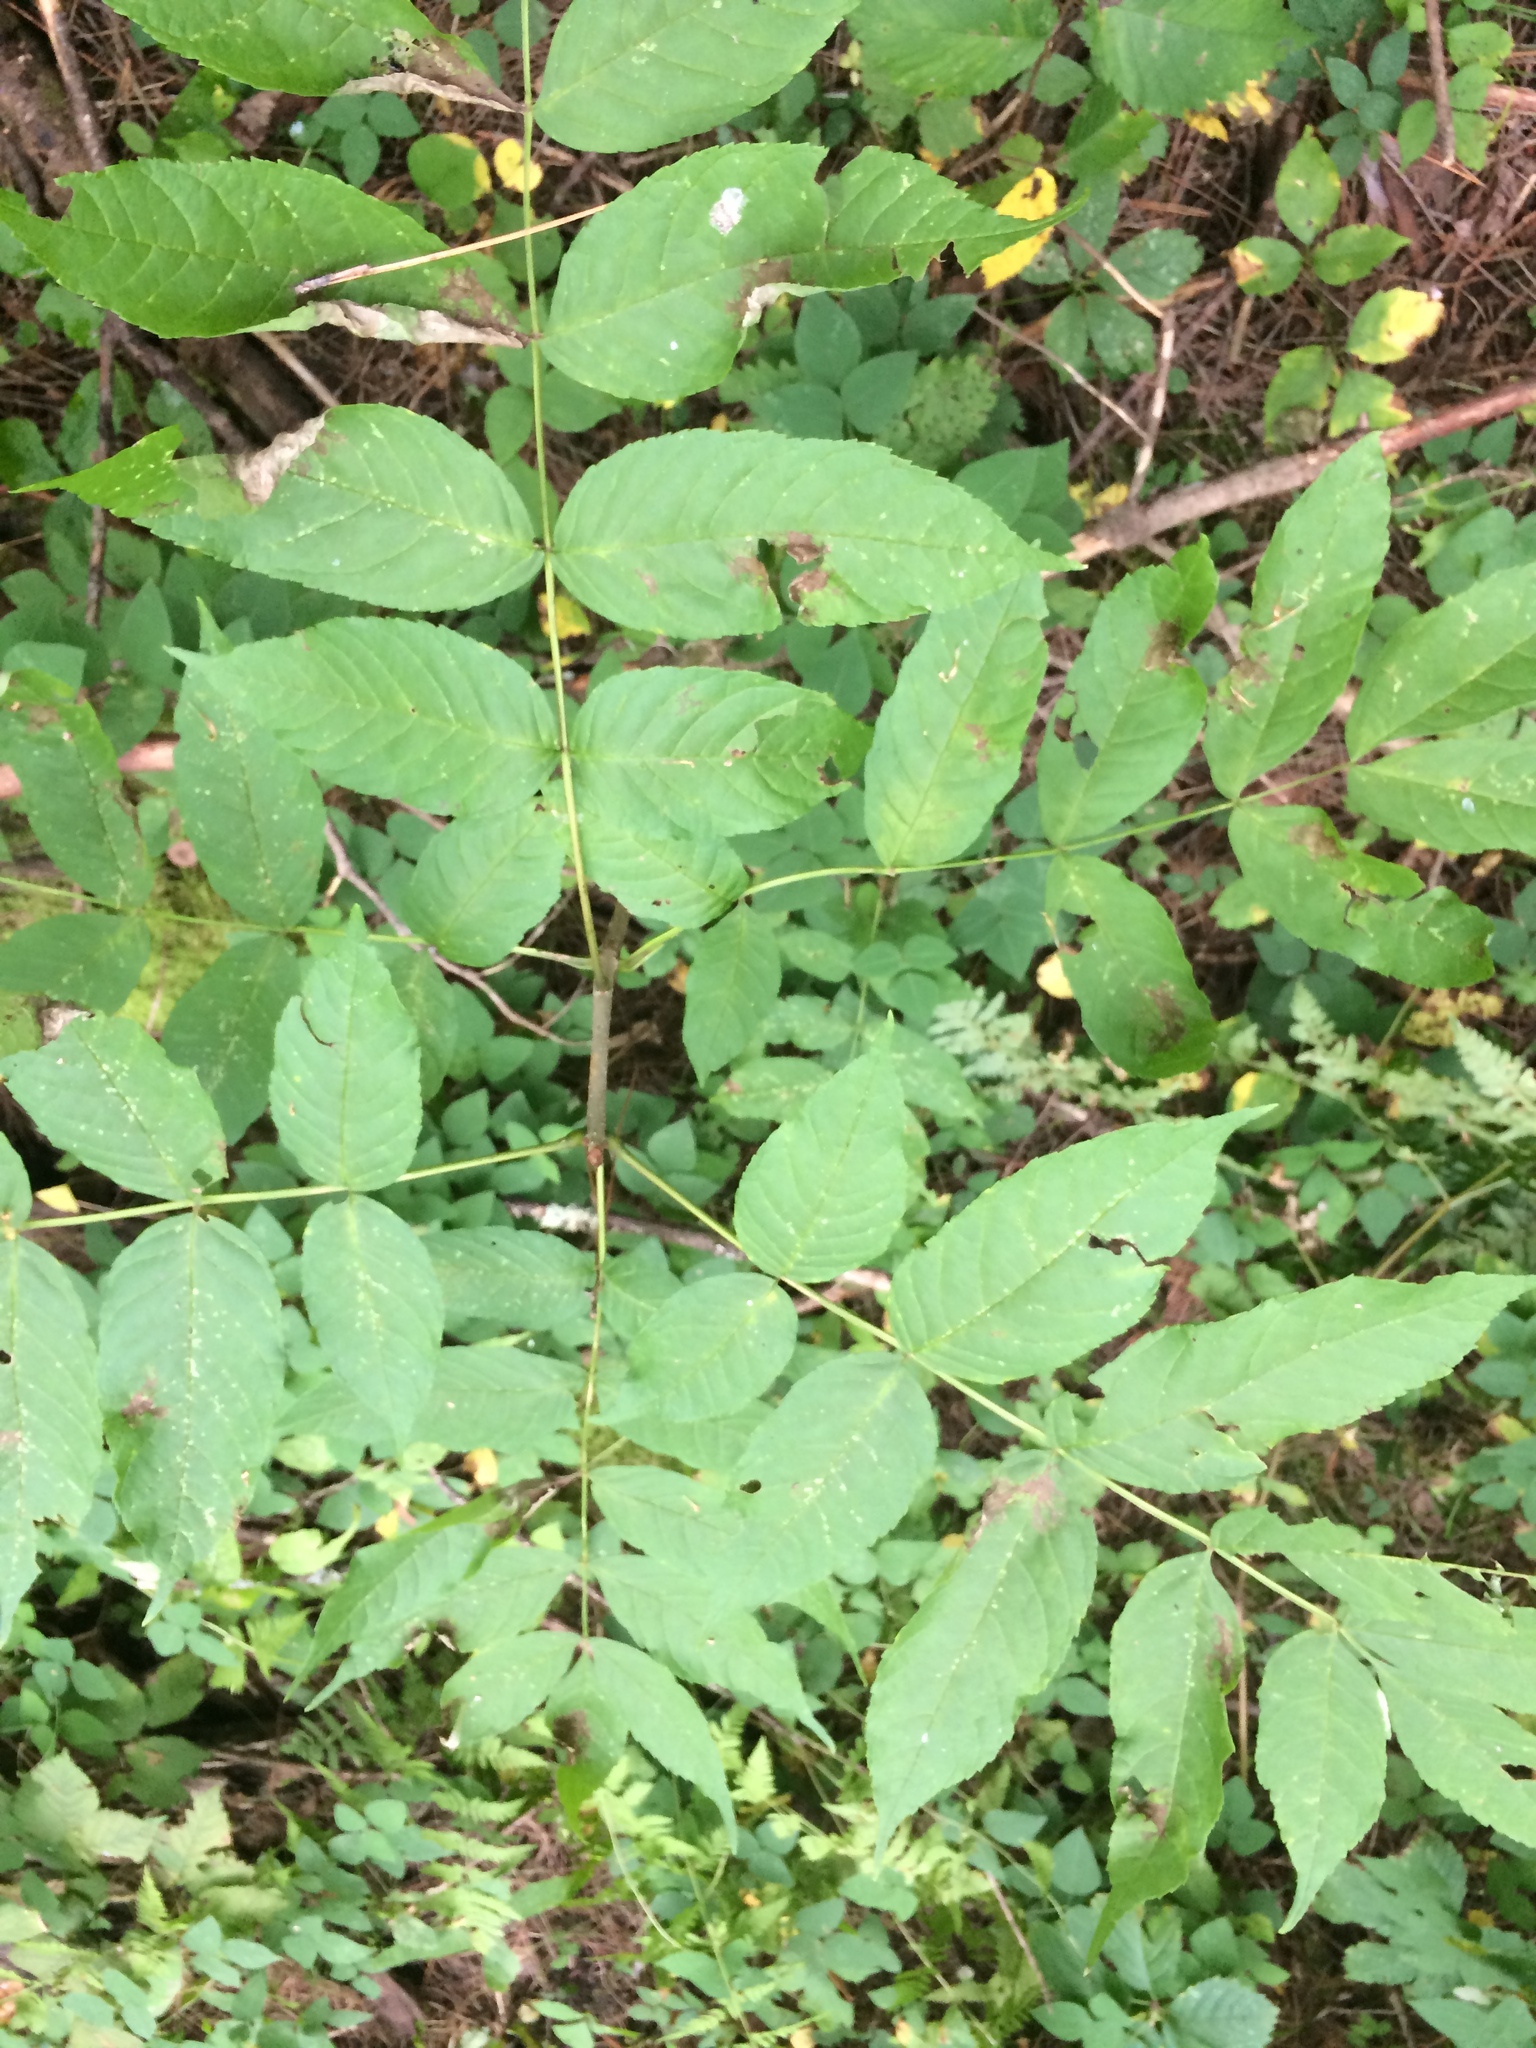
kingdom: Plantae
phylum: Tracheophyta
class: Magnoliopsida
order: Lamiales
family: Oleaceae
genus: Fraxinus
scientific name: Fraxinus nigra
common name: Black ash
